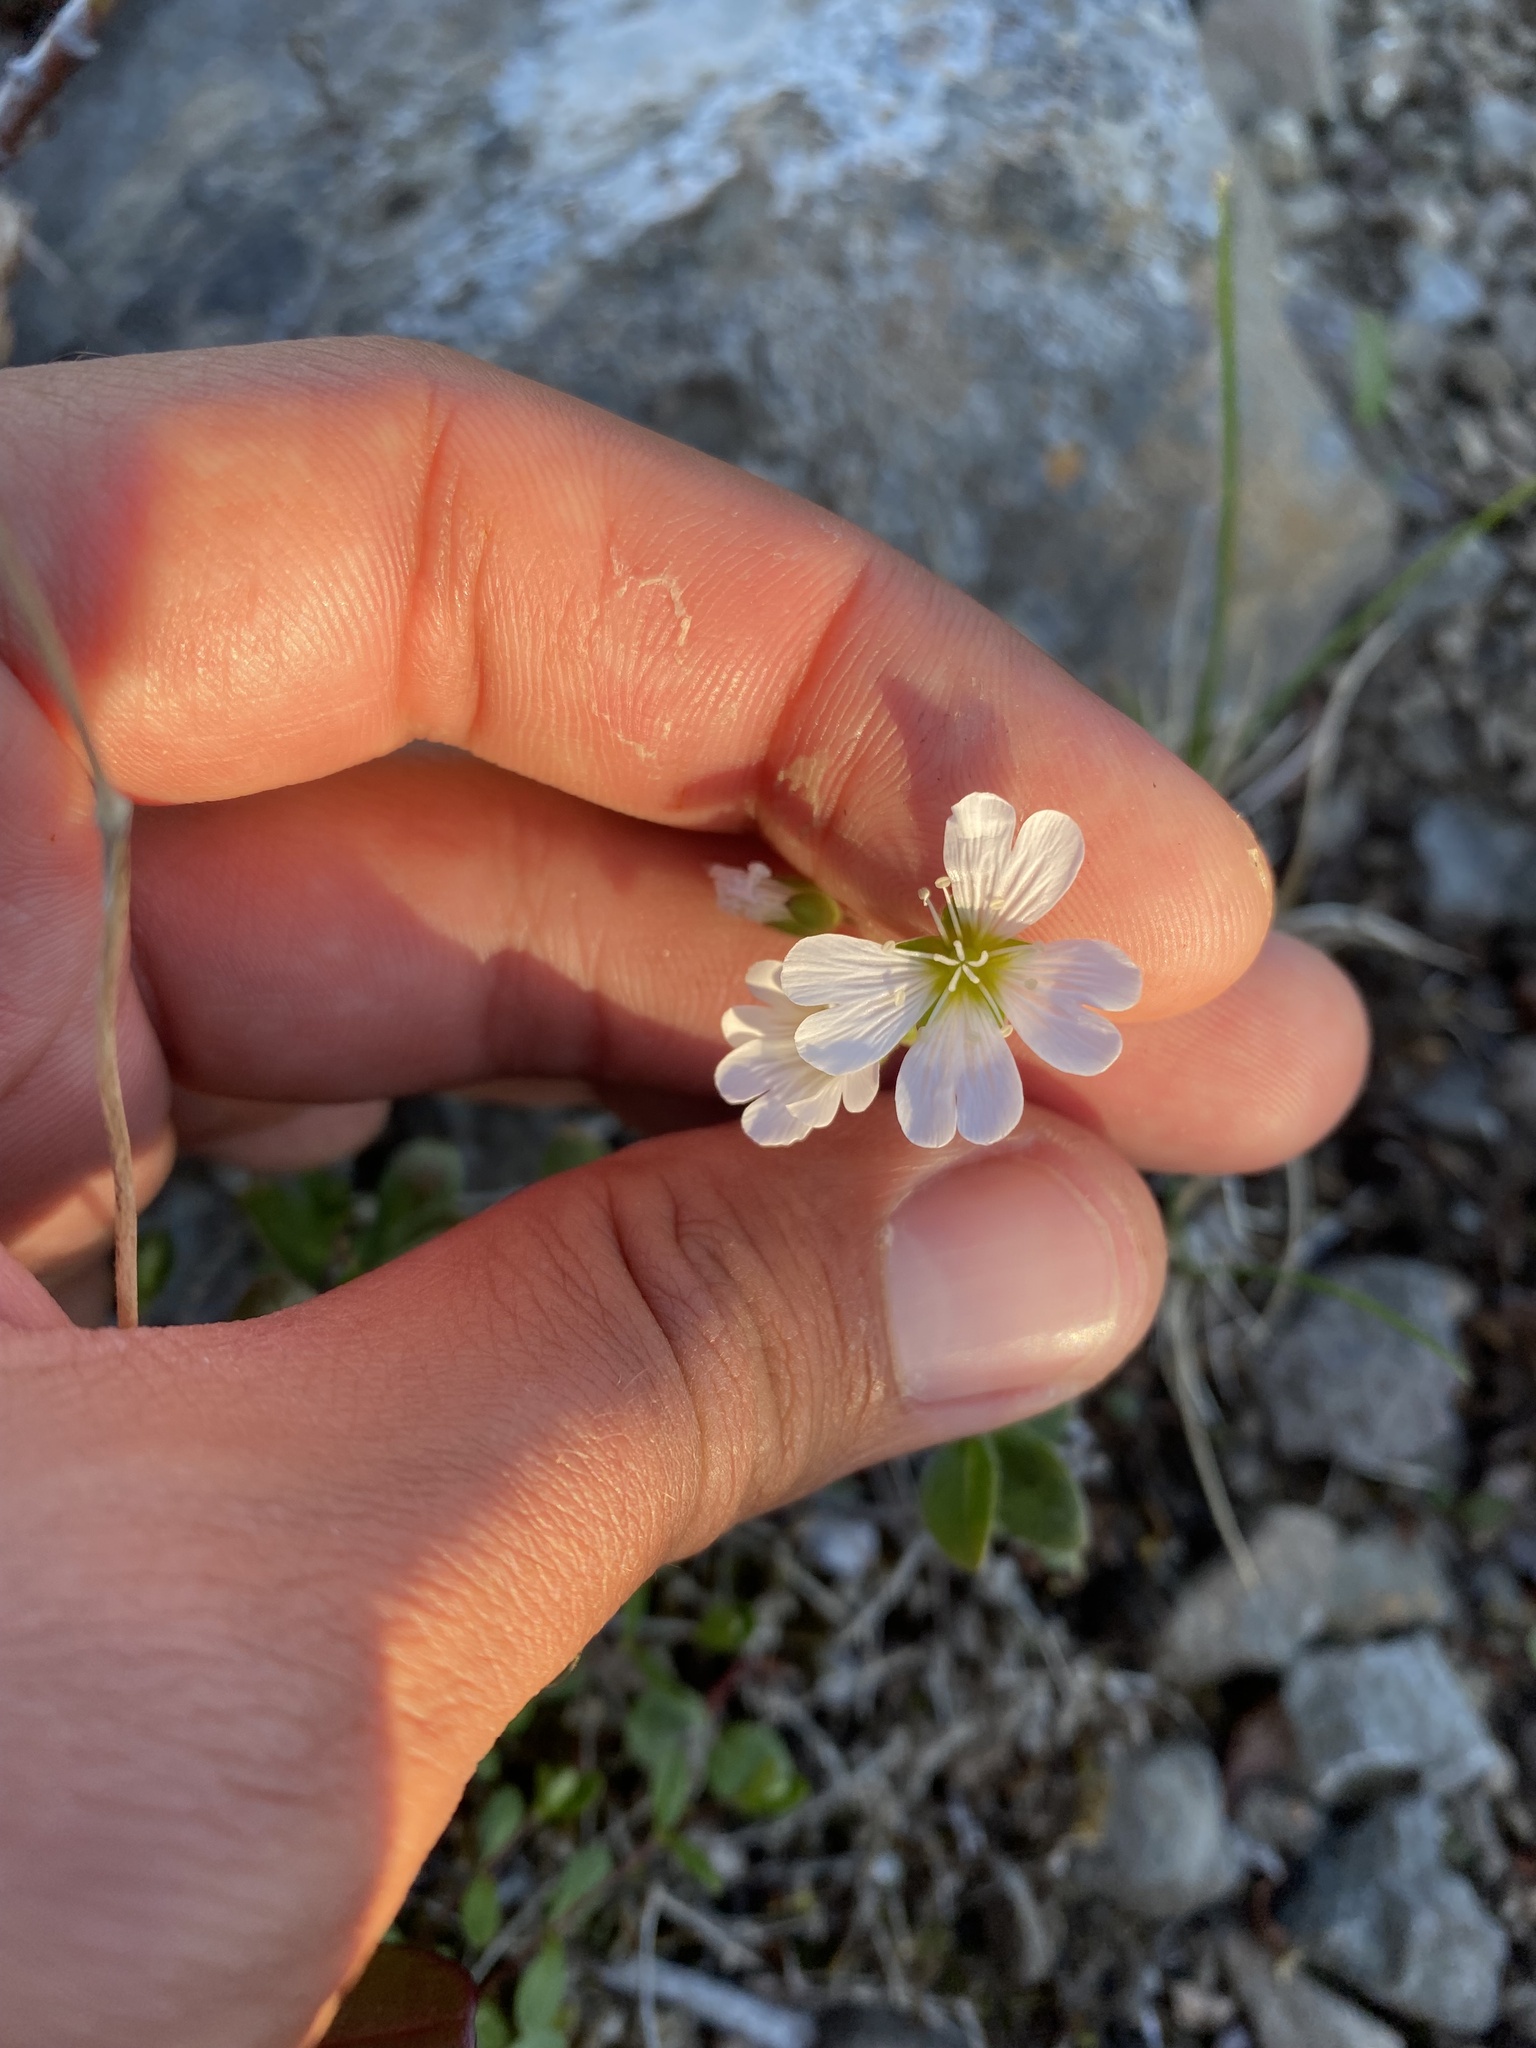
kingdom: Plantae
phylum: Tracheophyta
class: Magnoliopsida
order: Caryophyllales
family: Caryophyllaceae
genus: Cerastium
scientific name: Cerastium beeringianum
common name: Bering mouse-ear chickweed
